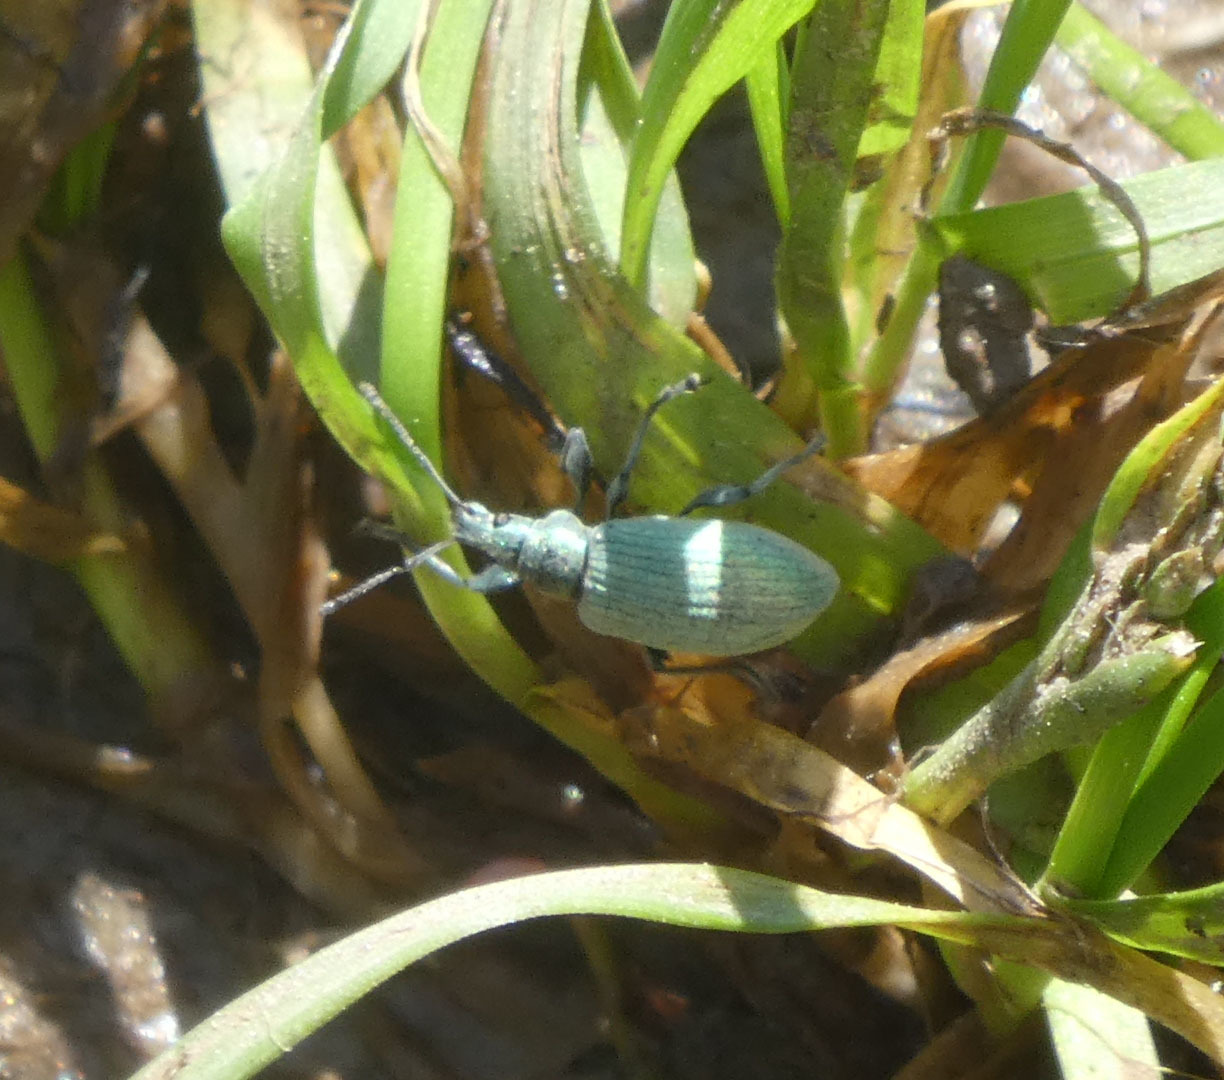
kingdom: Animalia
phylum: Arthropoda
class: Insecta
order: Coleoptera
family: Curculionidae
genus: Phyllobius
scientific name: Phyllobius pomaceus
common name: Green nettle weevil
